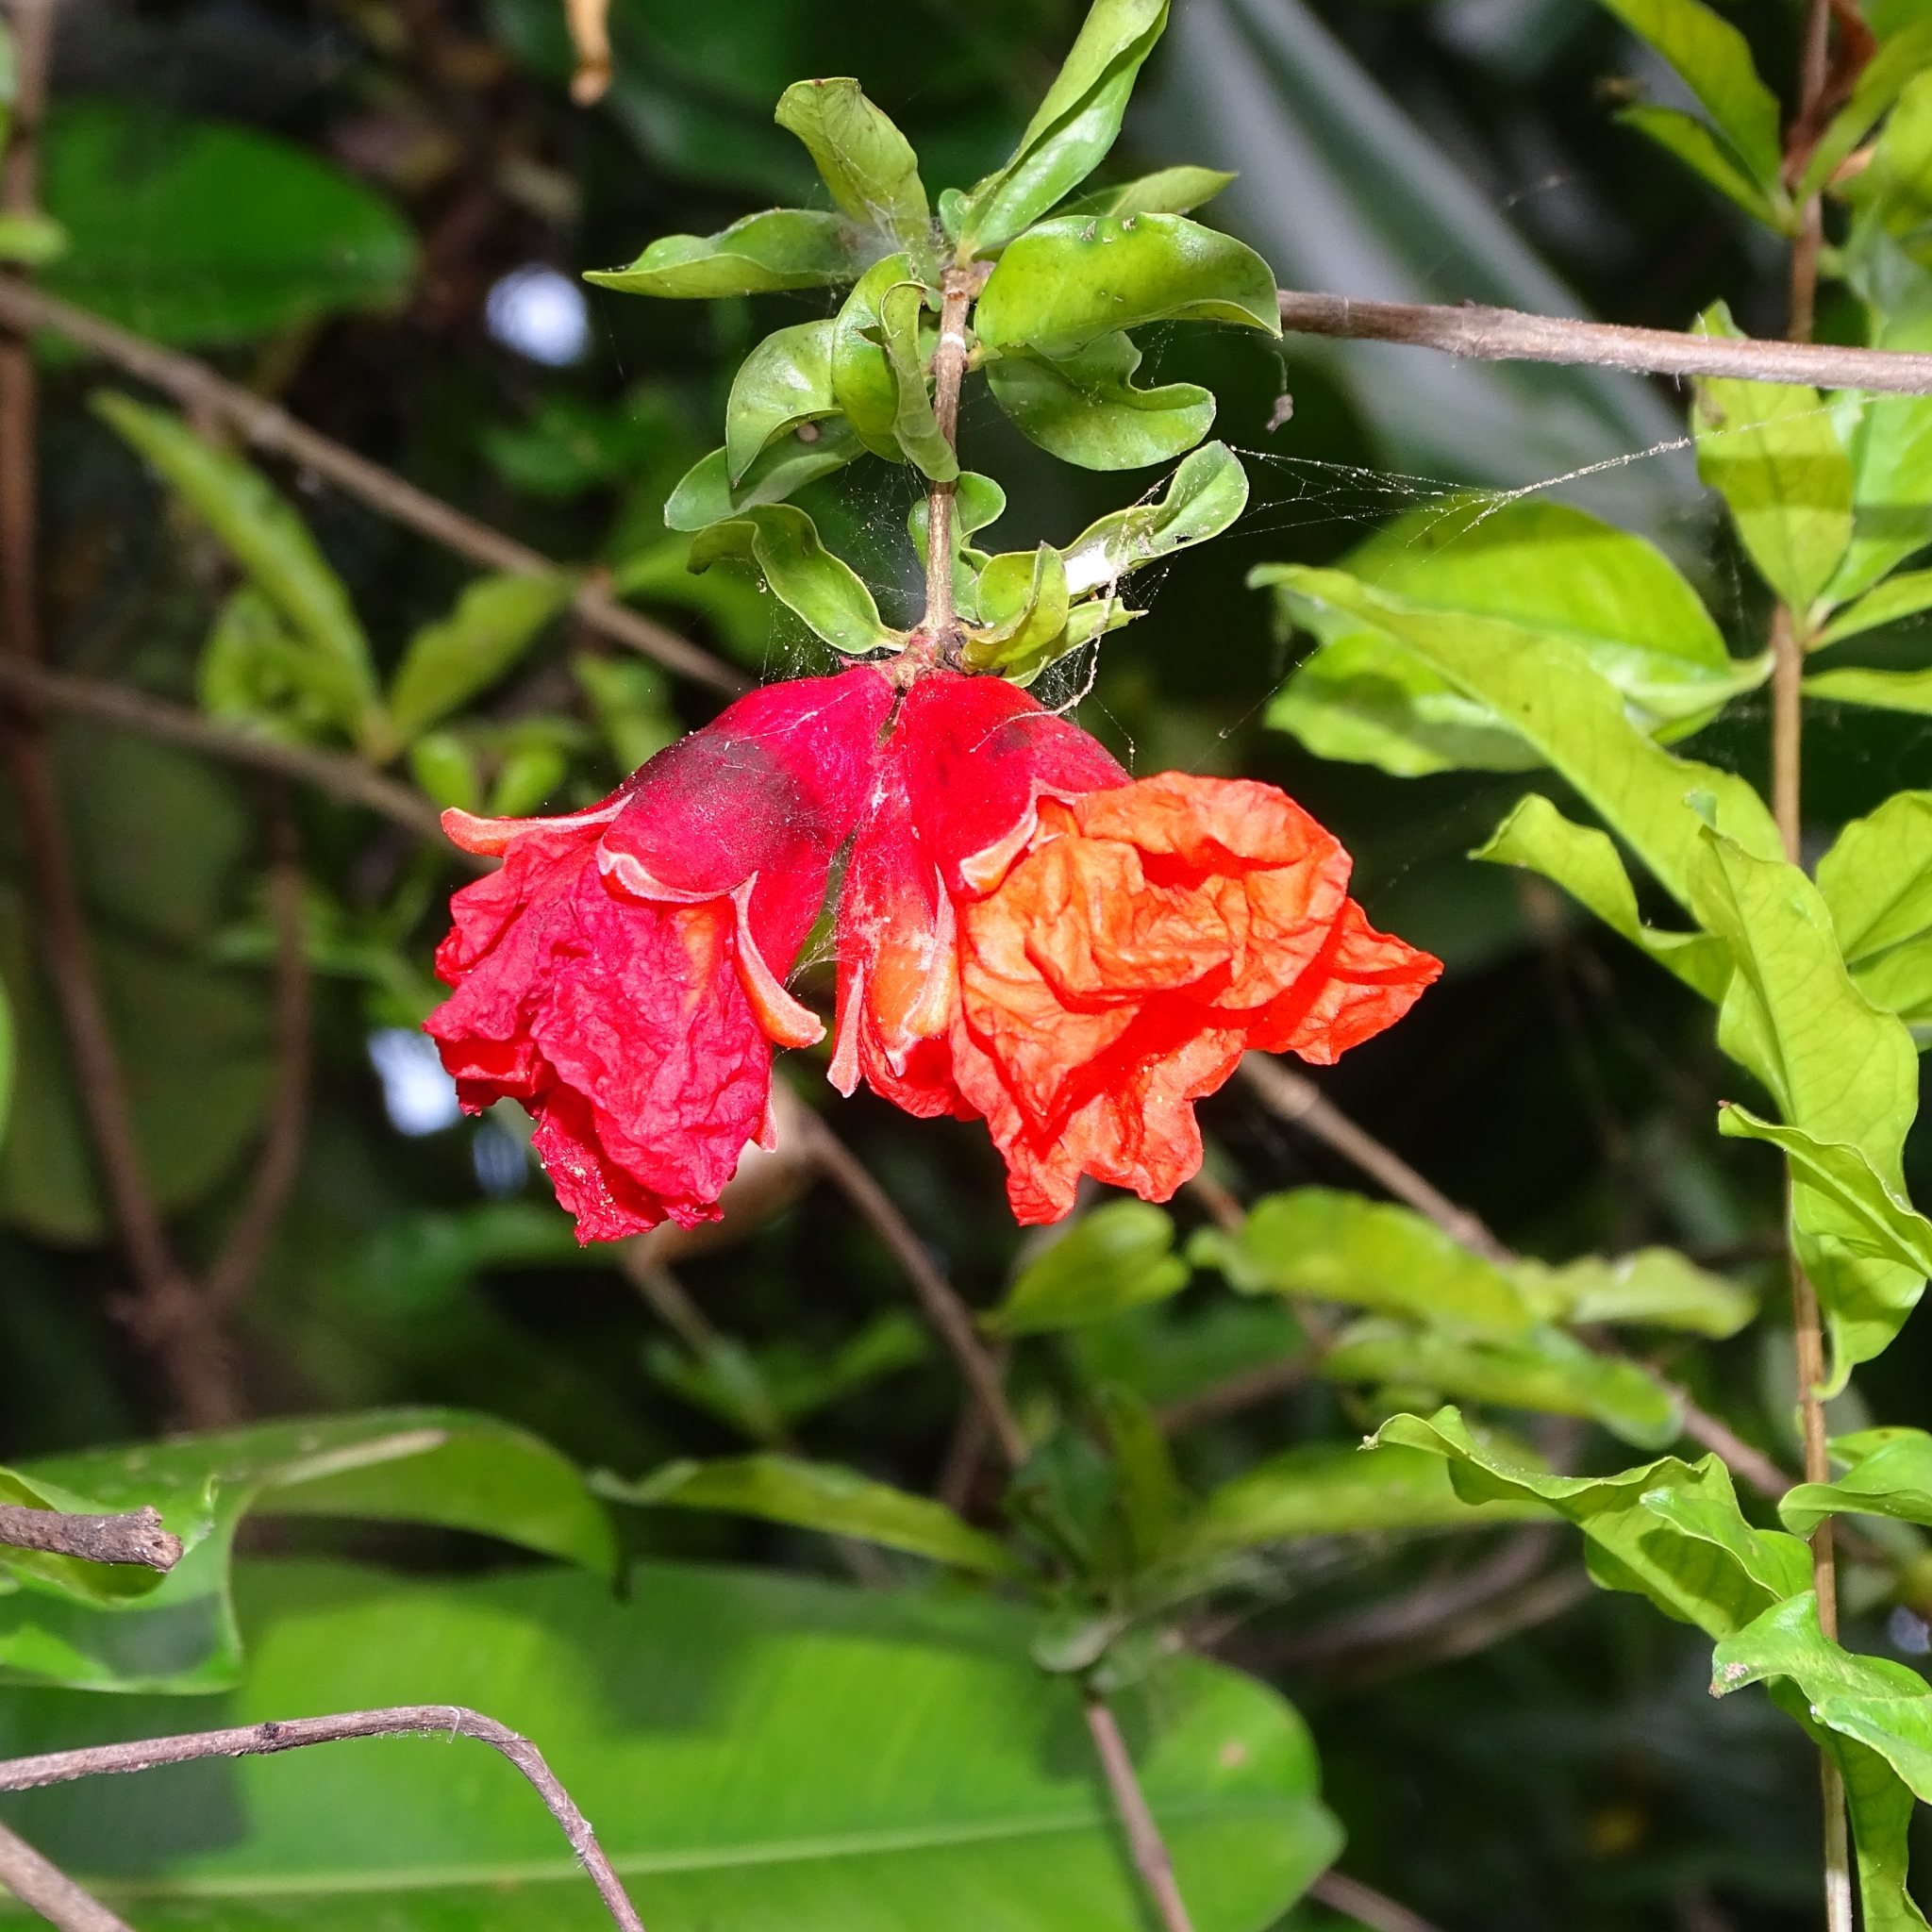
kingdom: Plantae
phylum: Tracheophyta
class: Magnoliopsida
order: Myrtales
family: Lythraceae
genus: Punica
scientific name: Punica granatum
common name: Pomegranate
